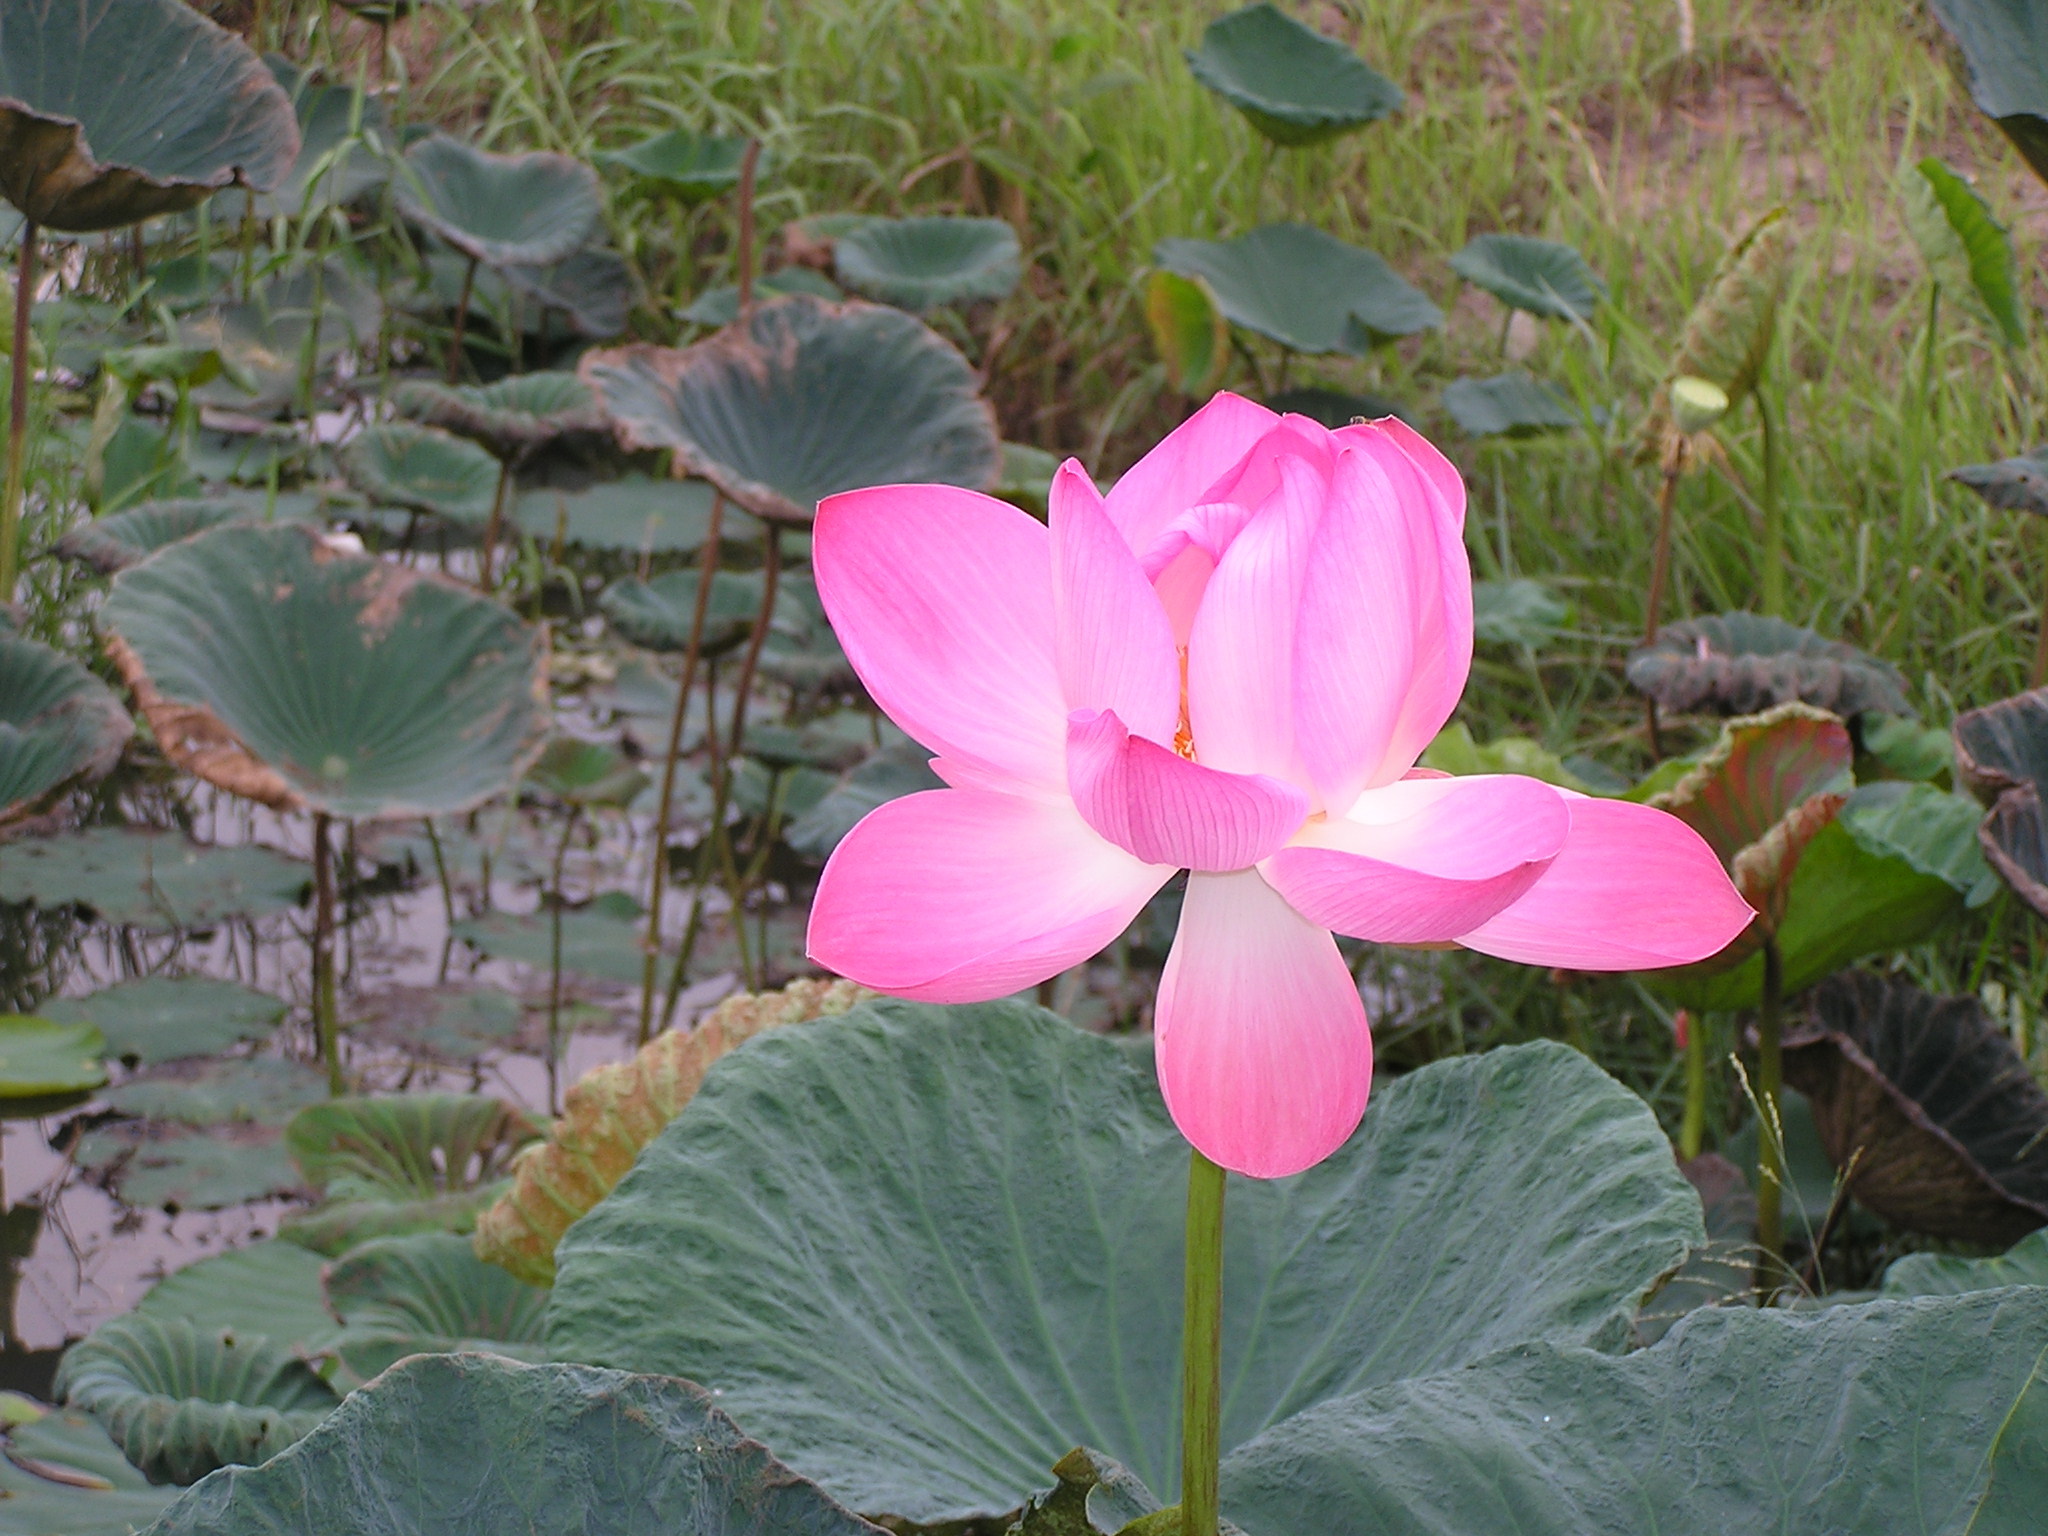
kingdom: Plantae
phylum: Tracheophyta
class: Magnoliopsida
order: Proteales
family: Nelumbonaceae
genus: Nelumbo
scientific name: Nelumbo nucifera
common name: Sacred lotus
